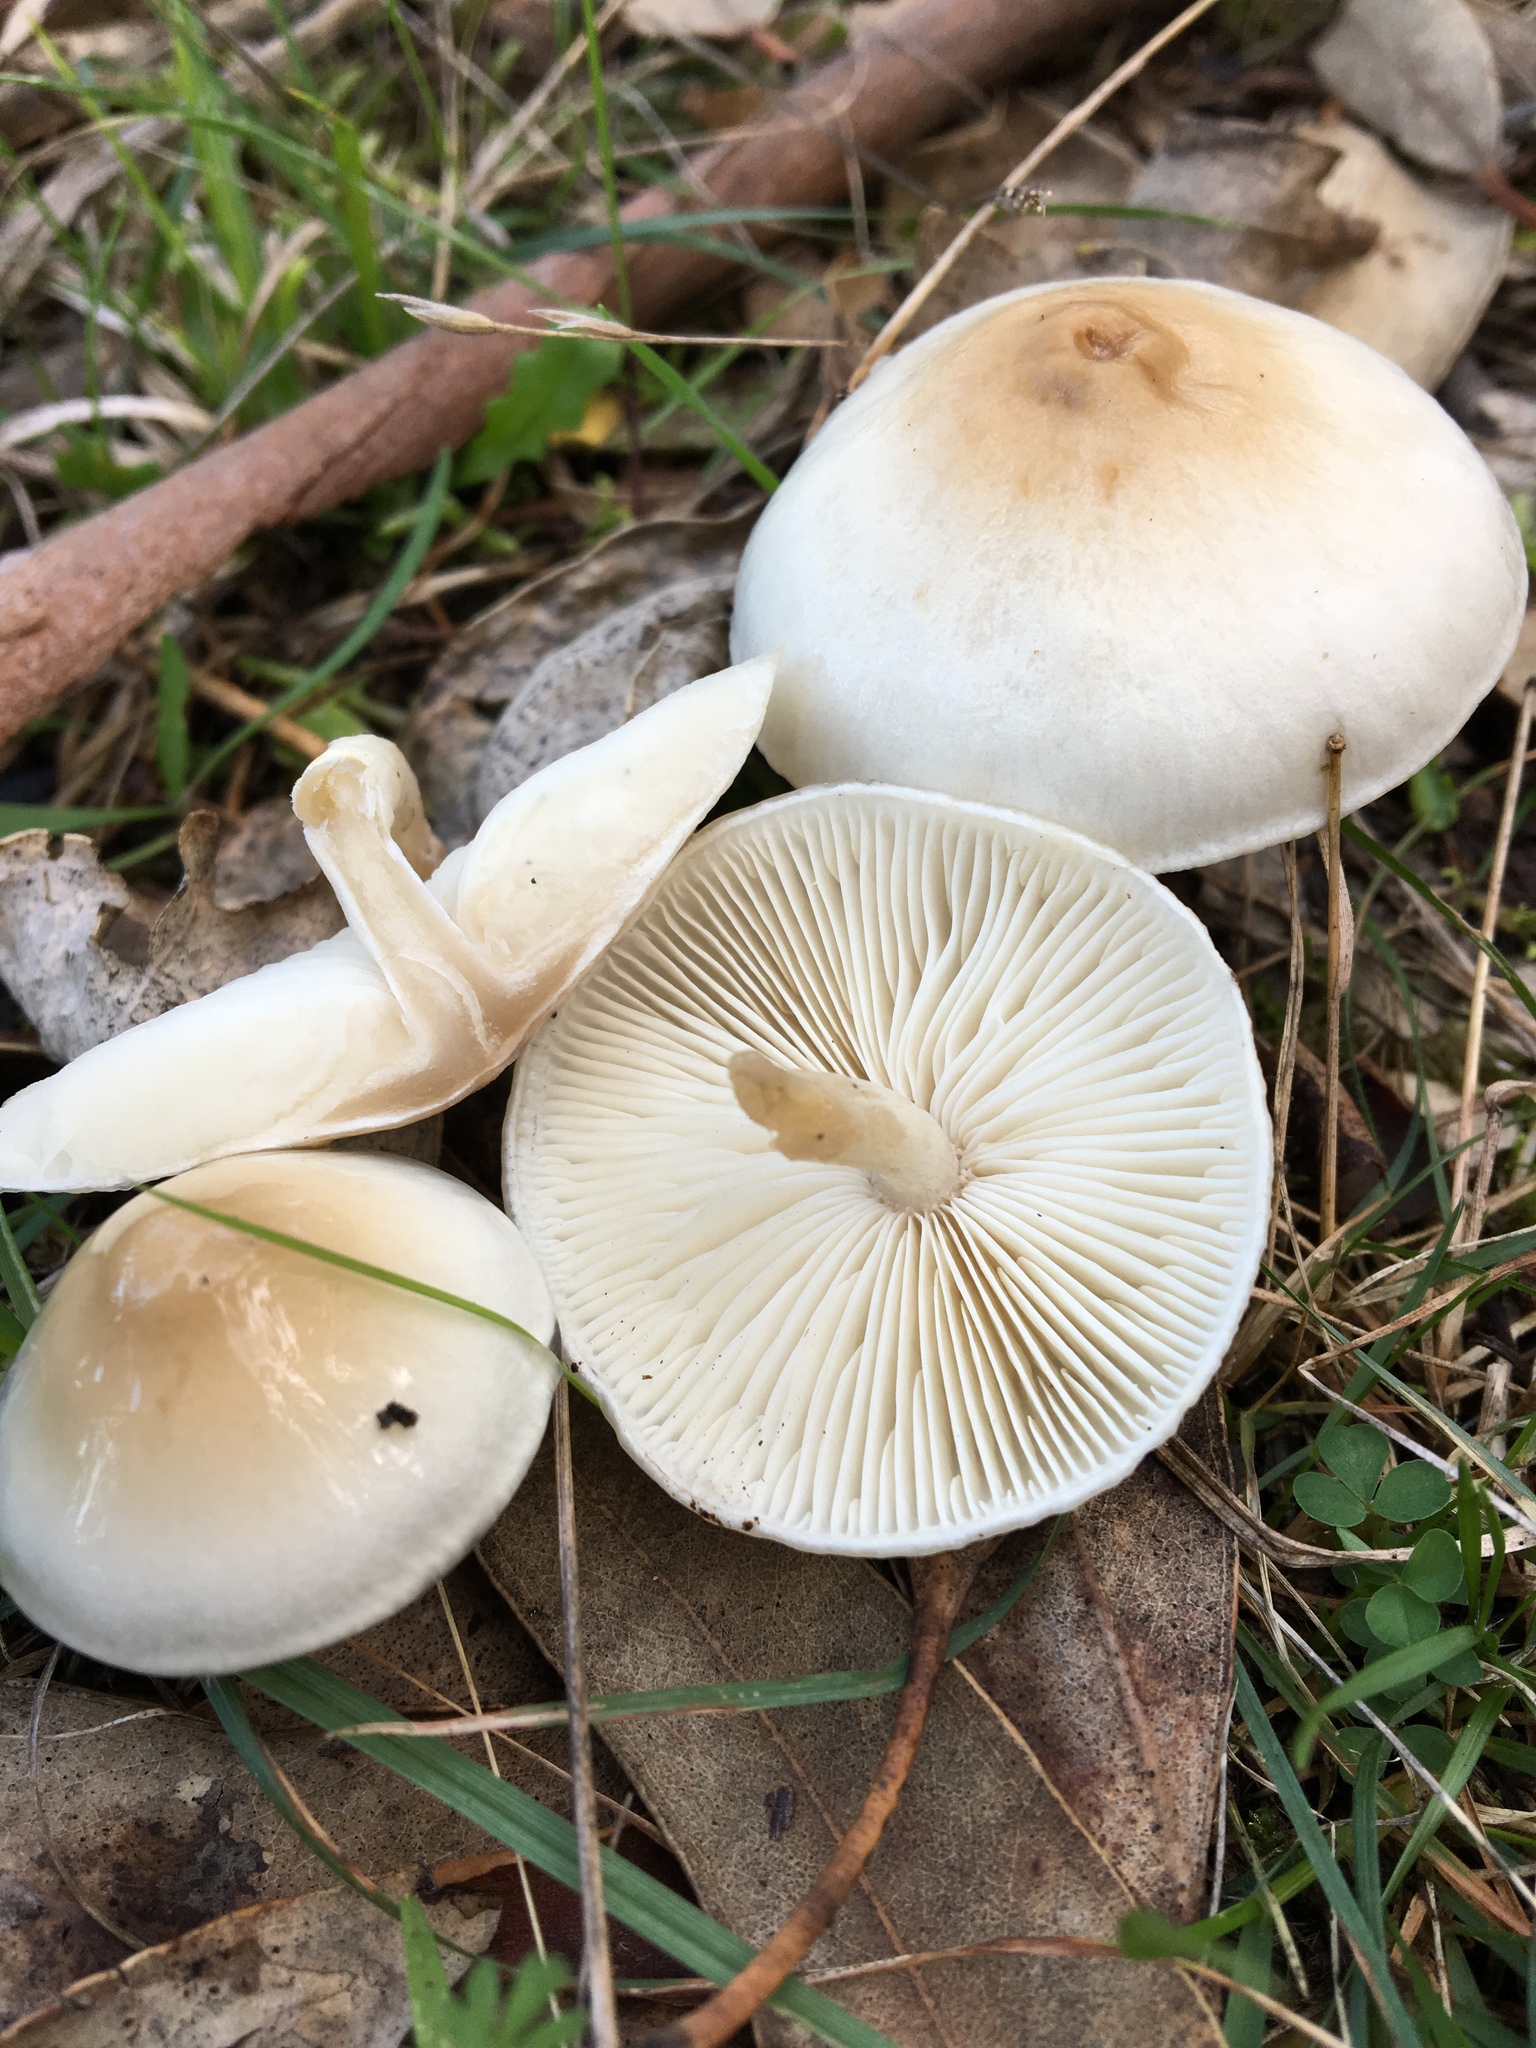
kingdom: Fungi
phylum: Basidiomycota
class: Agaricomycetes
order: Agaricales
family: Amanitaceae
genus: Limacella
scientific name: Limacella pitereka
